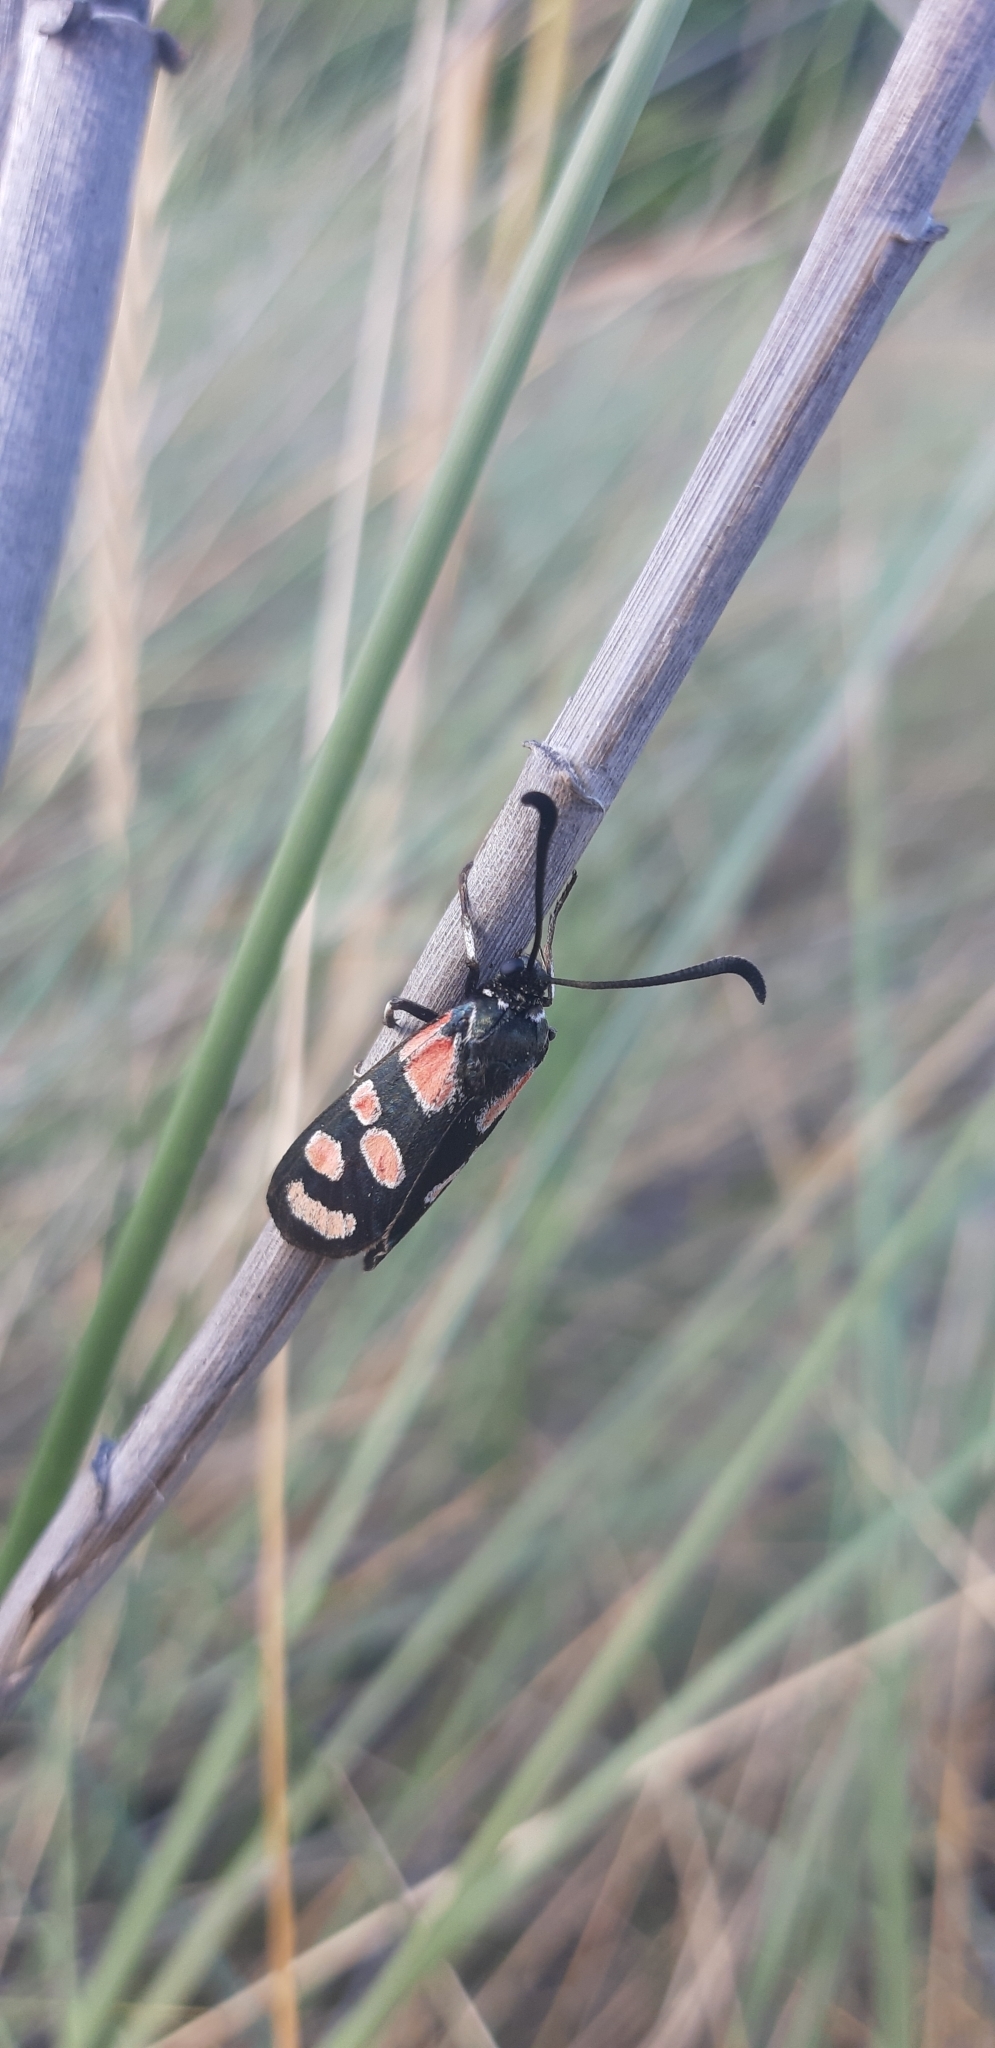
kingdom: Animalia
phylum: Arthropoda
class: Insecta
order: Lepidoptera
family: Zygaenidae
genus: Zygaena
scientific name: Zygaena carniolica
